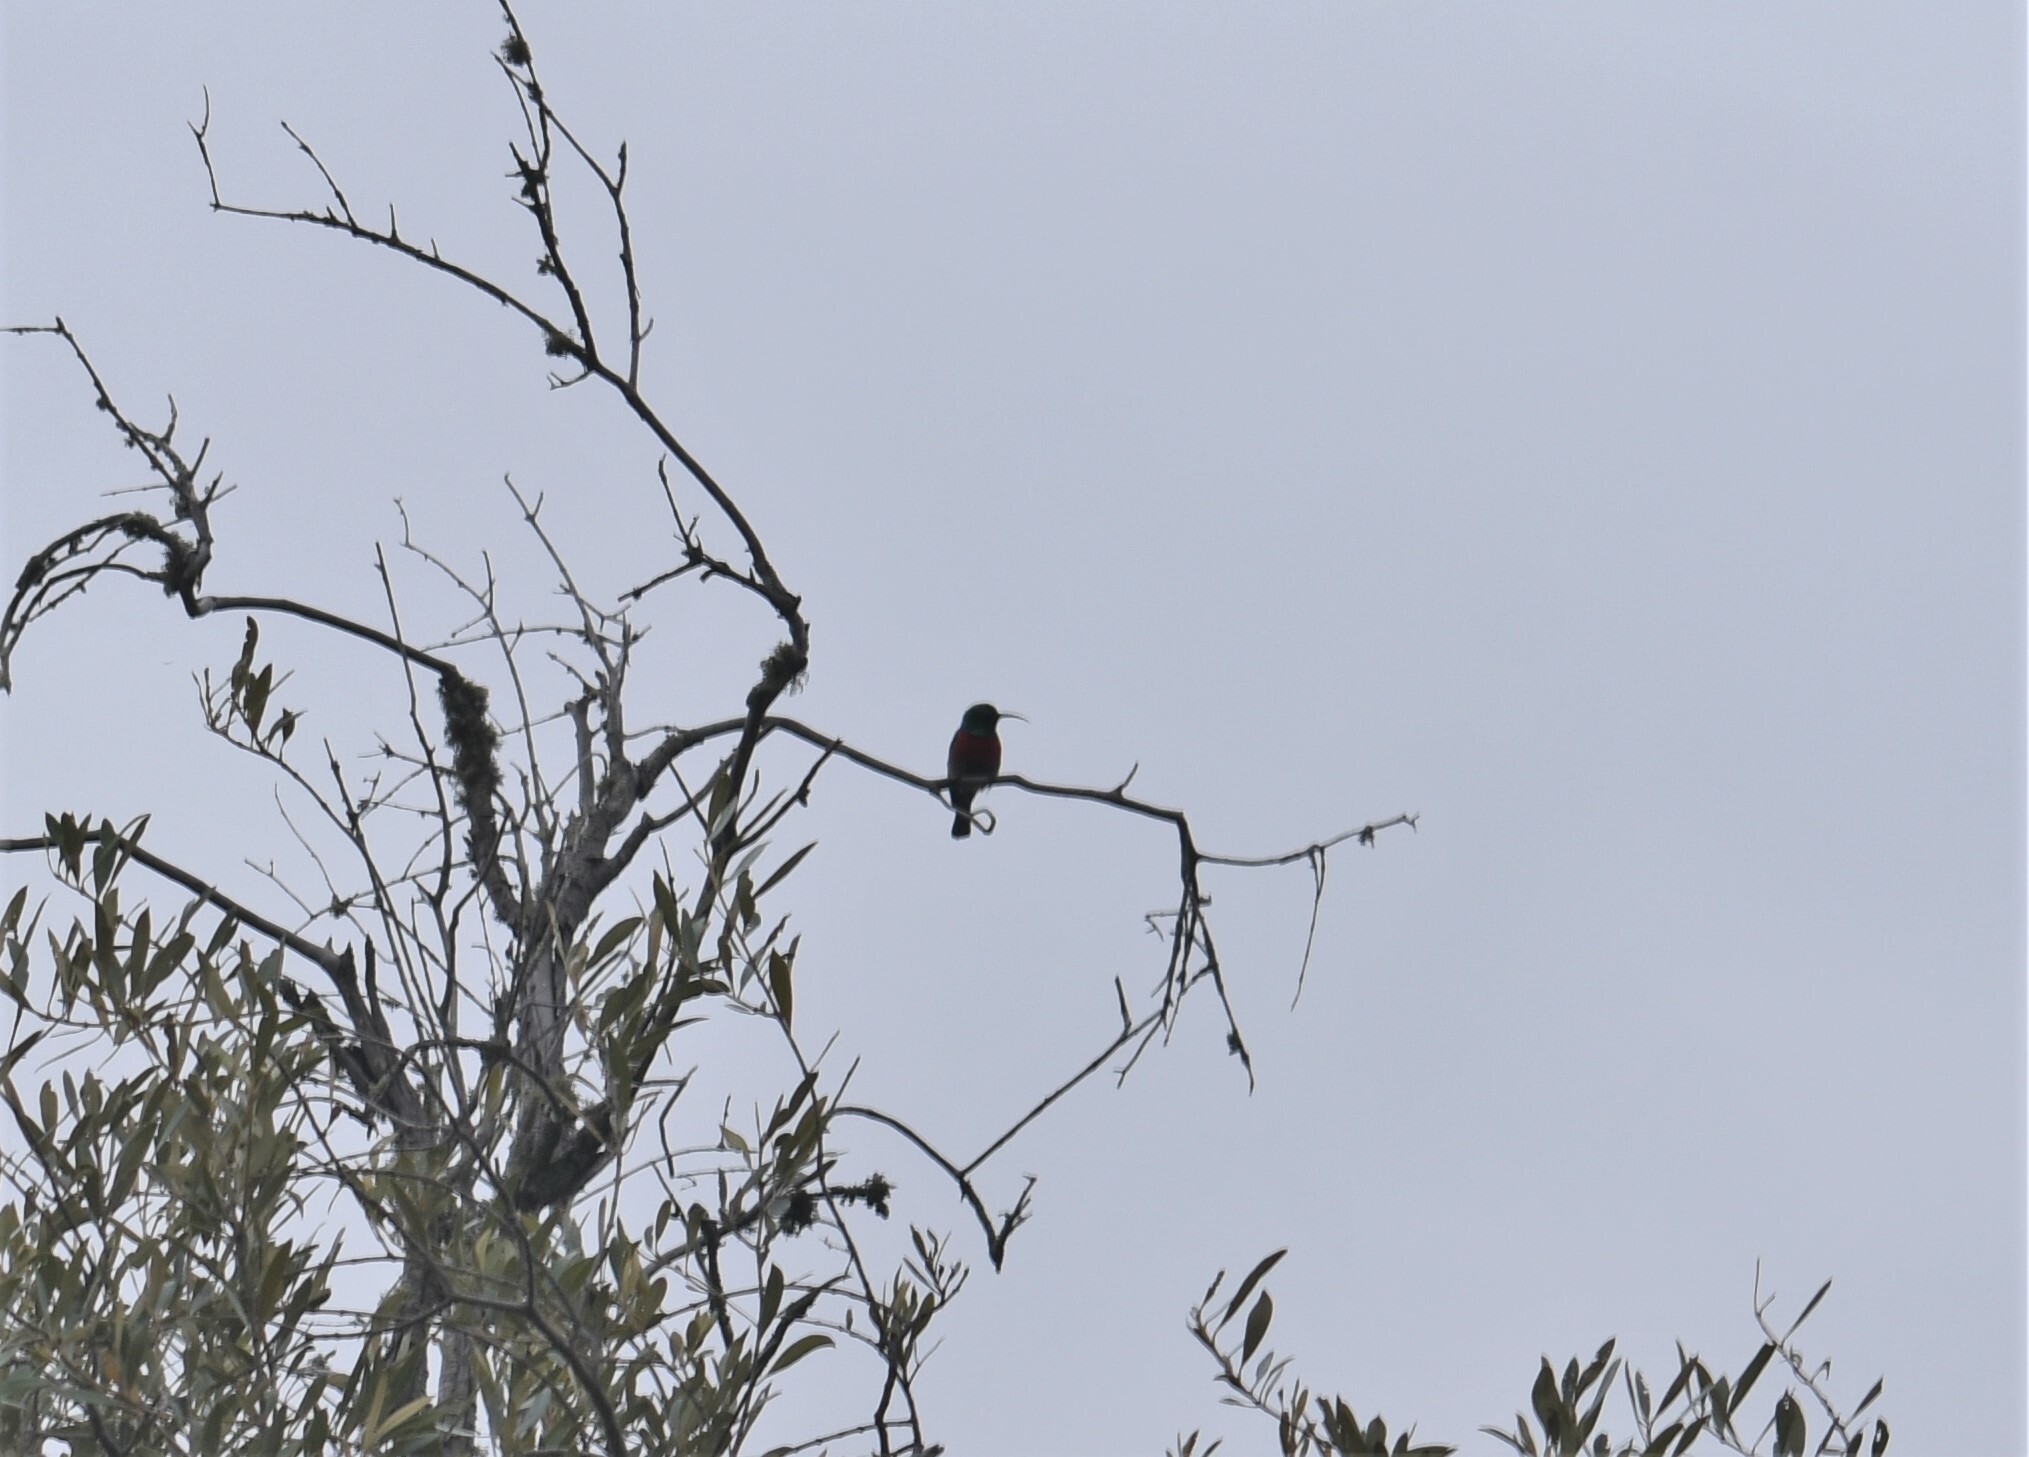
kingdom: Animalia
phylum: Chordata
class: Aves
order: Passeriformes
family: Nectariniidae
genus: Cinnyris
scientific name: Cinnyris afer
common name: Greater double-collared sunbird
